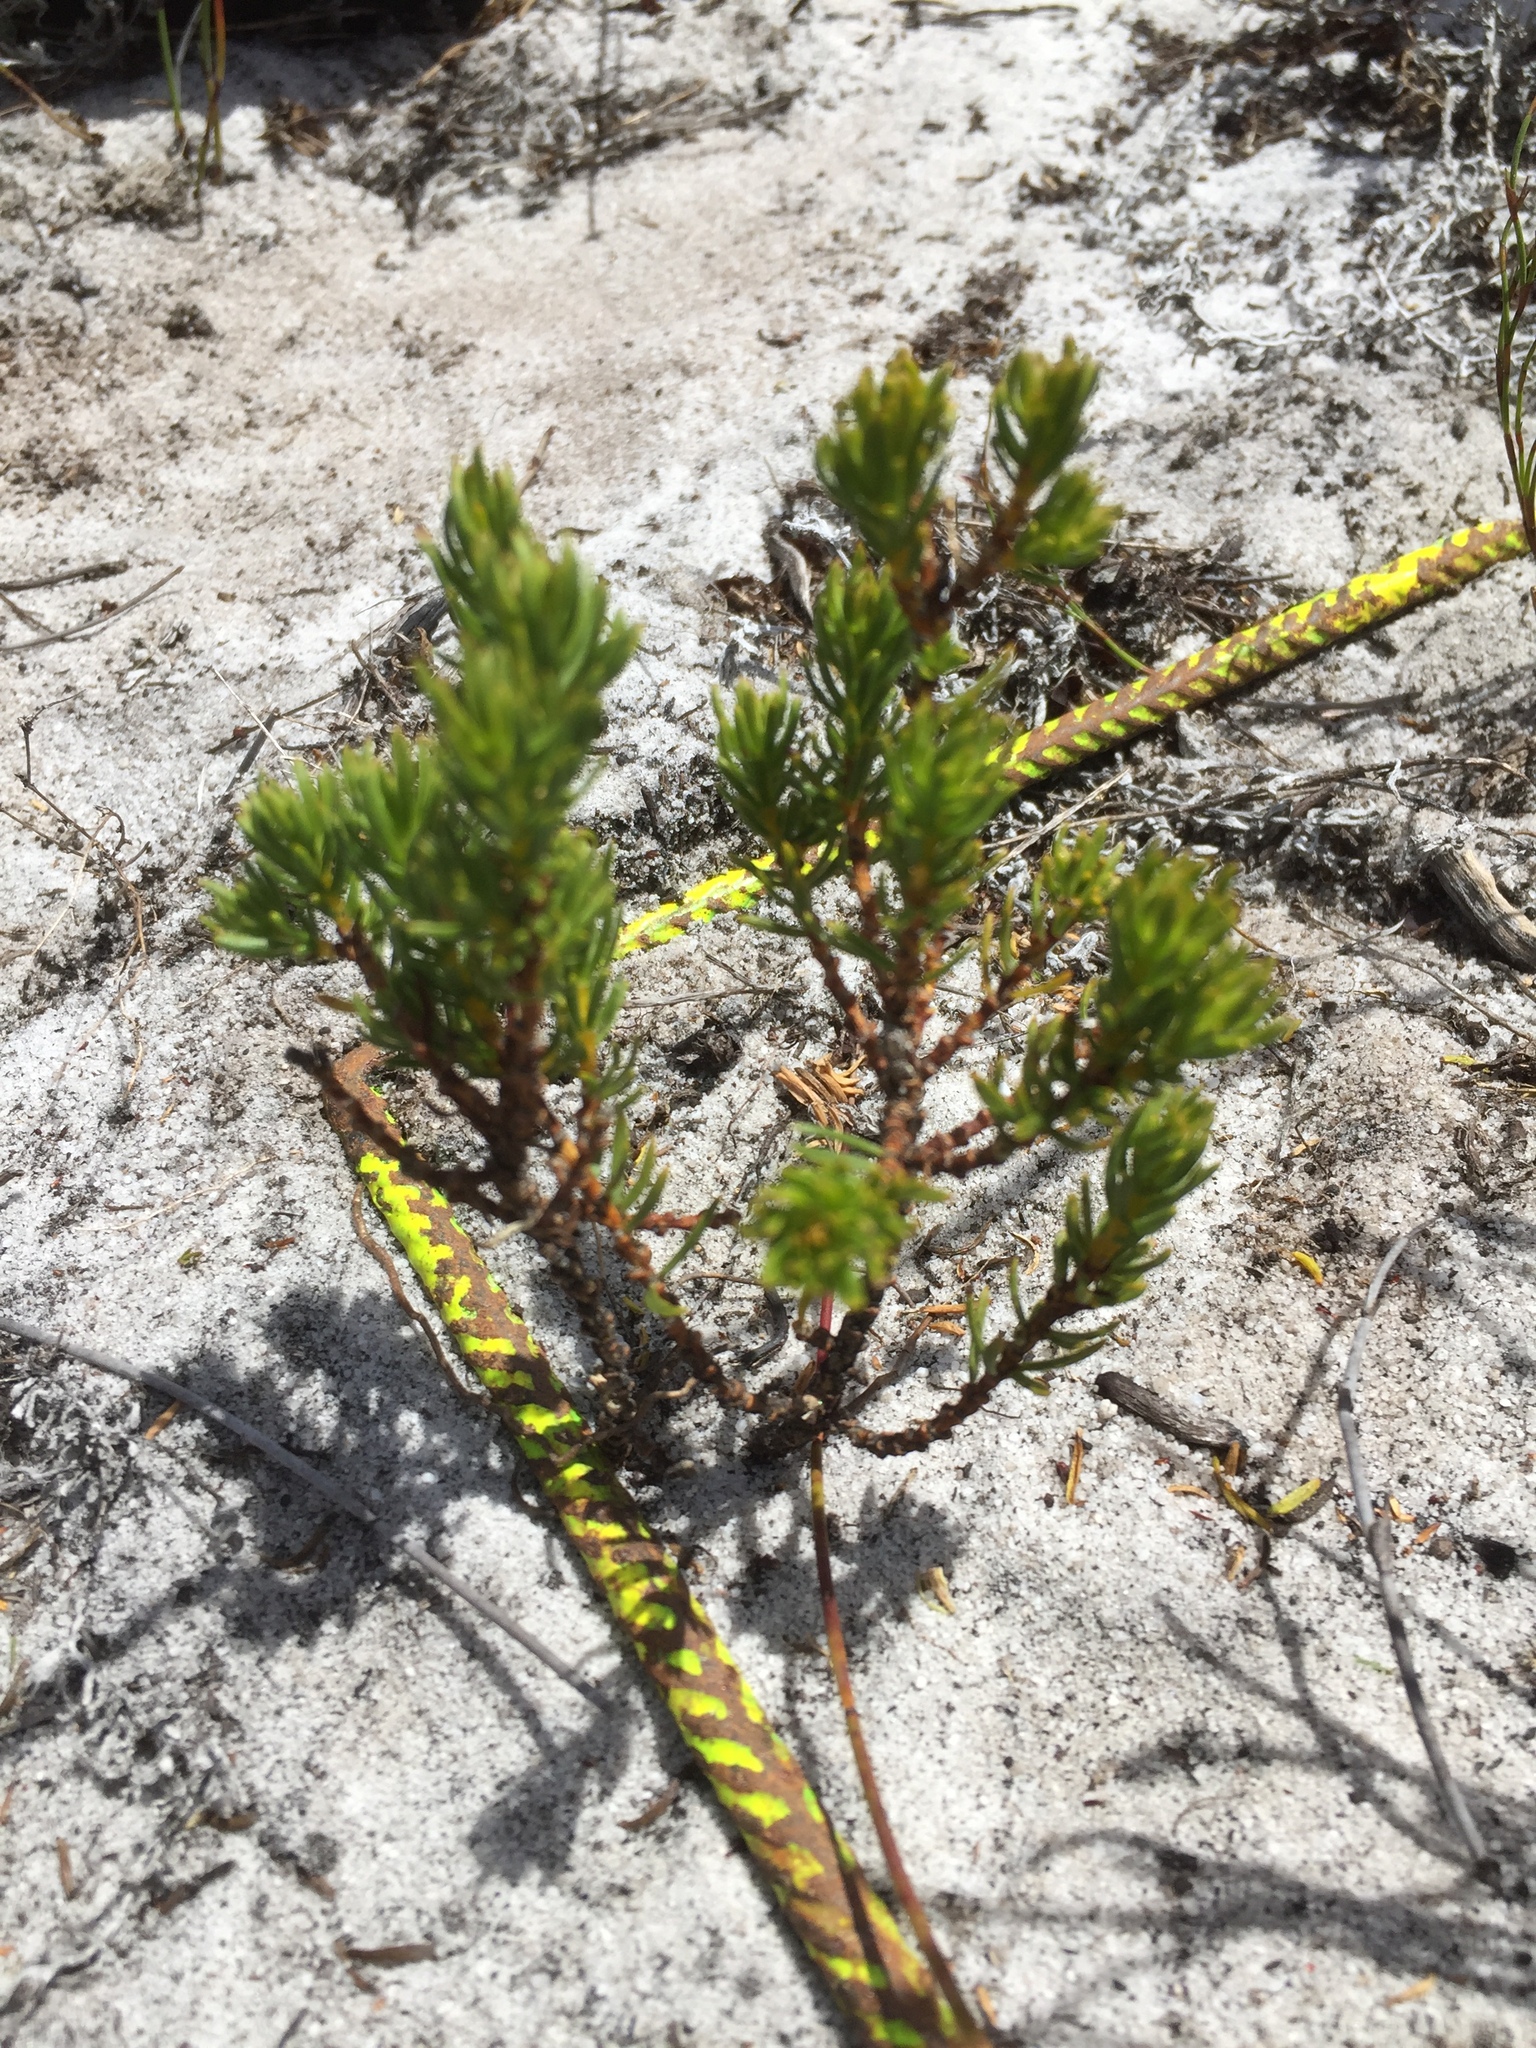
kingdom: Plantae
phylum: Tracheophyta
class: Magnoliopsida
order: Fabales
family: Fabaceae
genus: Aspalathus
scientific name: Aspalathus callosa
